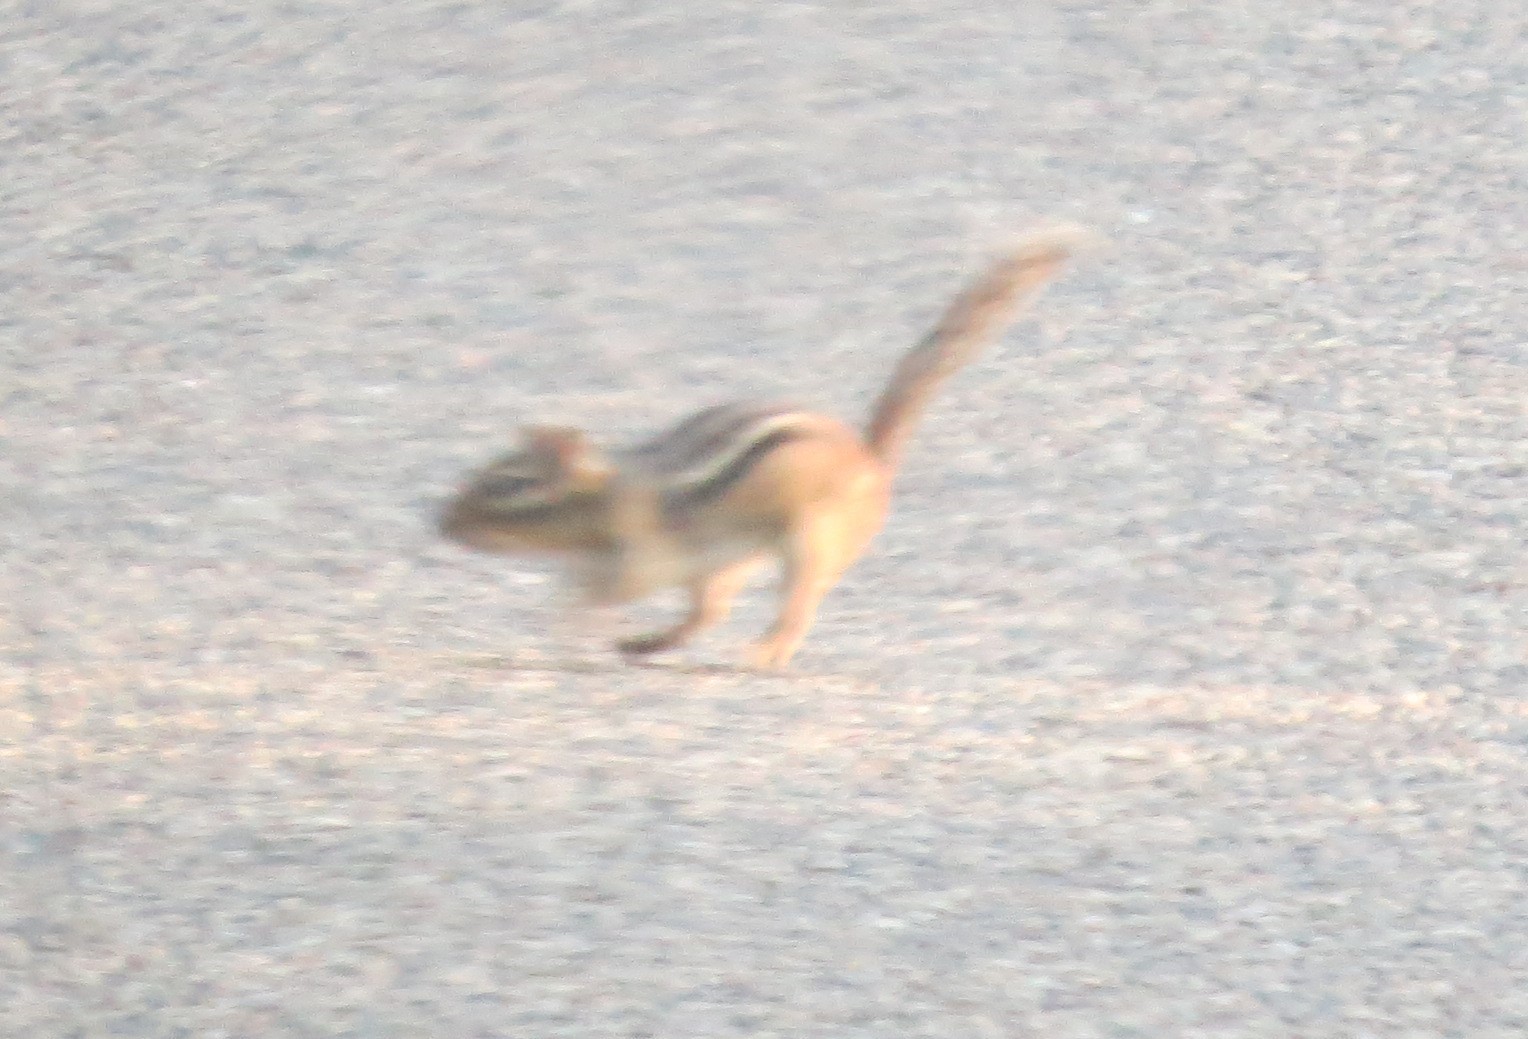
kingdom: Animalia
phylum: Chordata
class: Mammalia
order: Rodentia
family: Sciuridae
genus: Tamias
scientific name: Tamias striatus
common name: Eastern chipmunk
